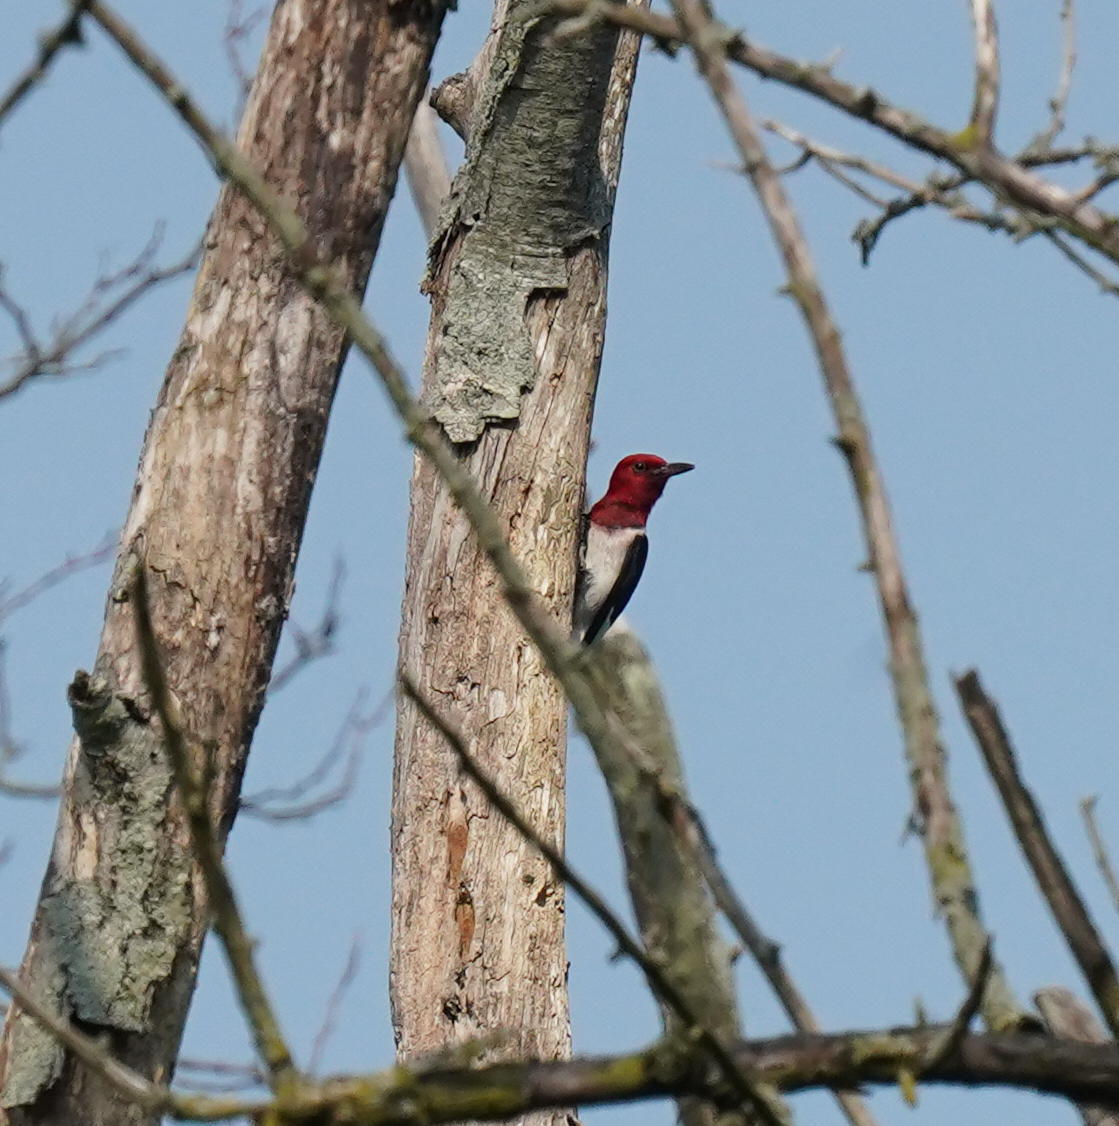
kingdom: Animalia
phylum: Chordata
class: Aves
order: Piciformes
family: Picidae
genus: Melanerpes
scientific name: Melanerpes erythrocephalus
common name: Red-headed woodpecker
